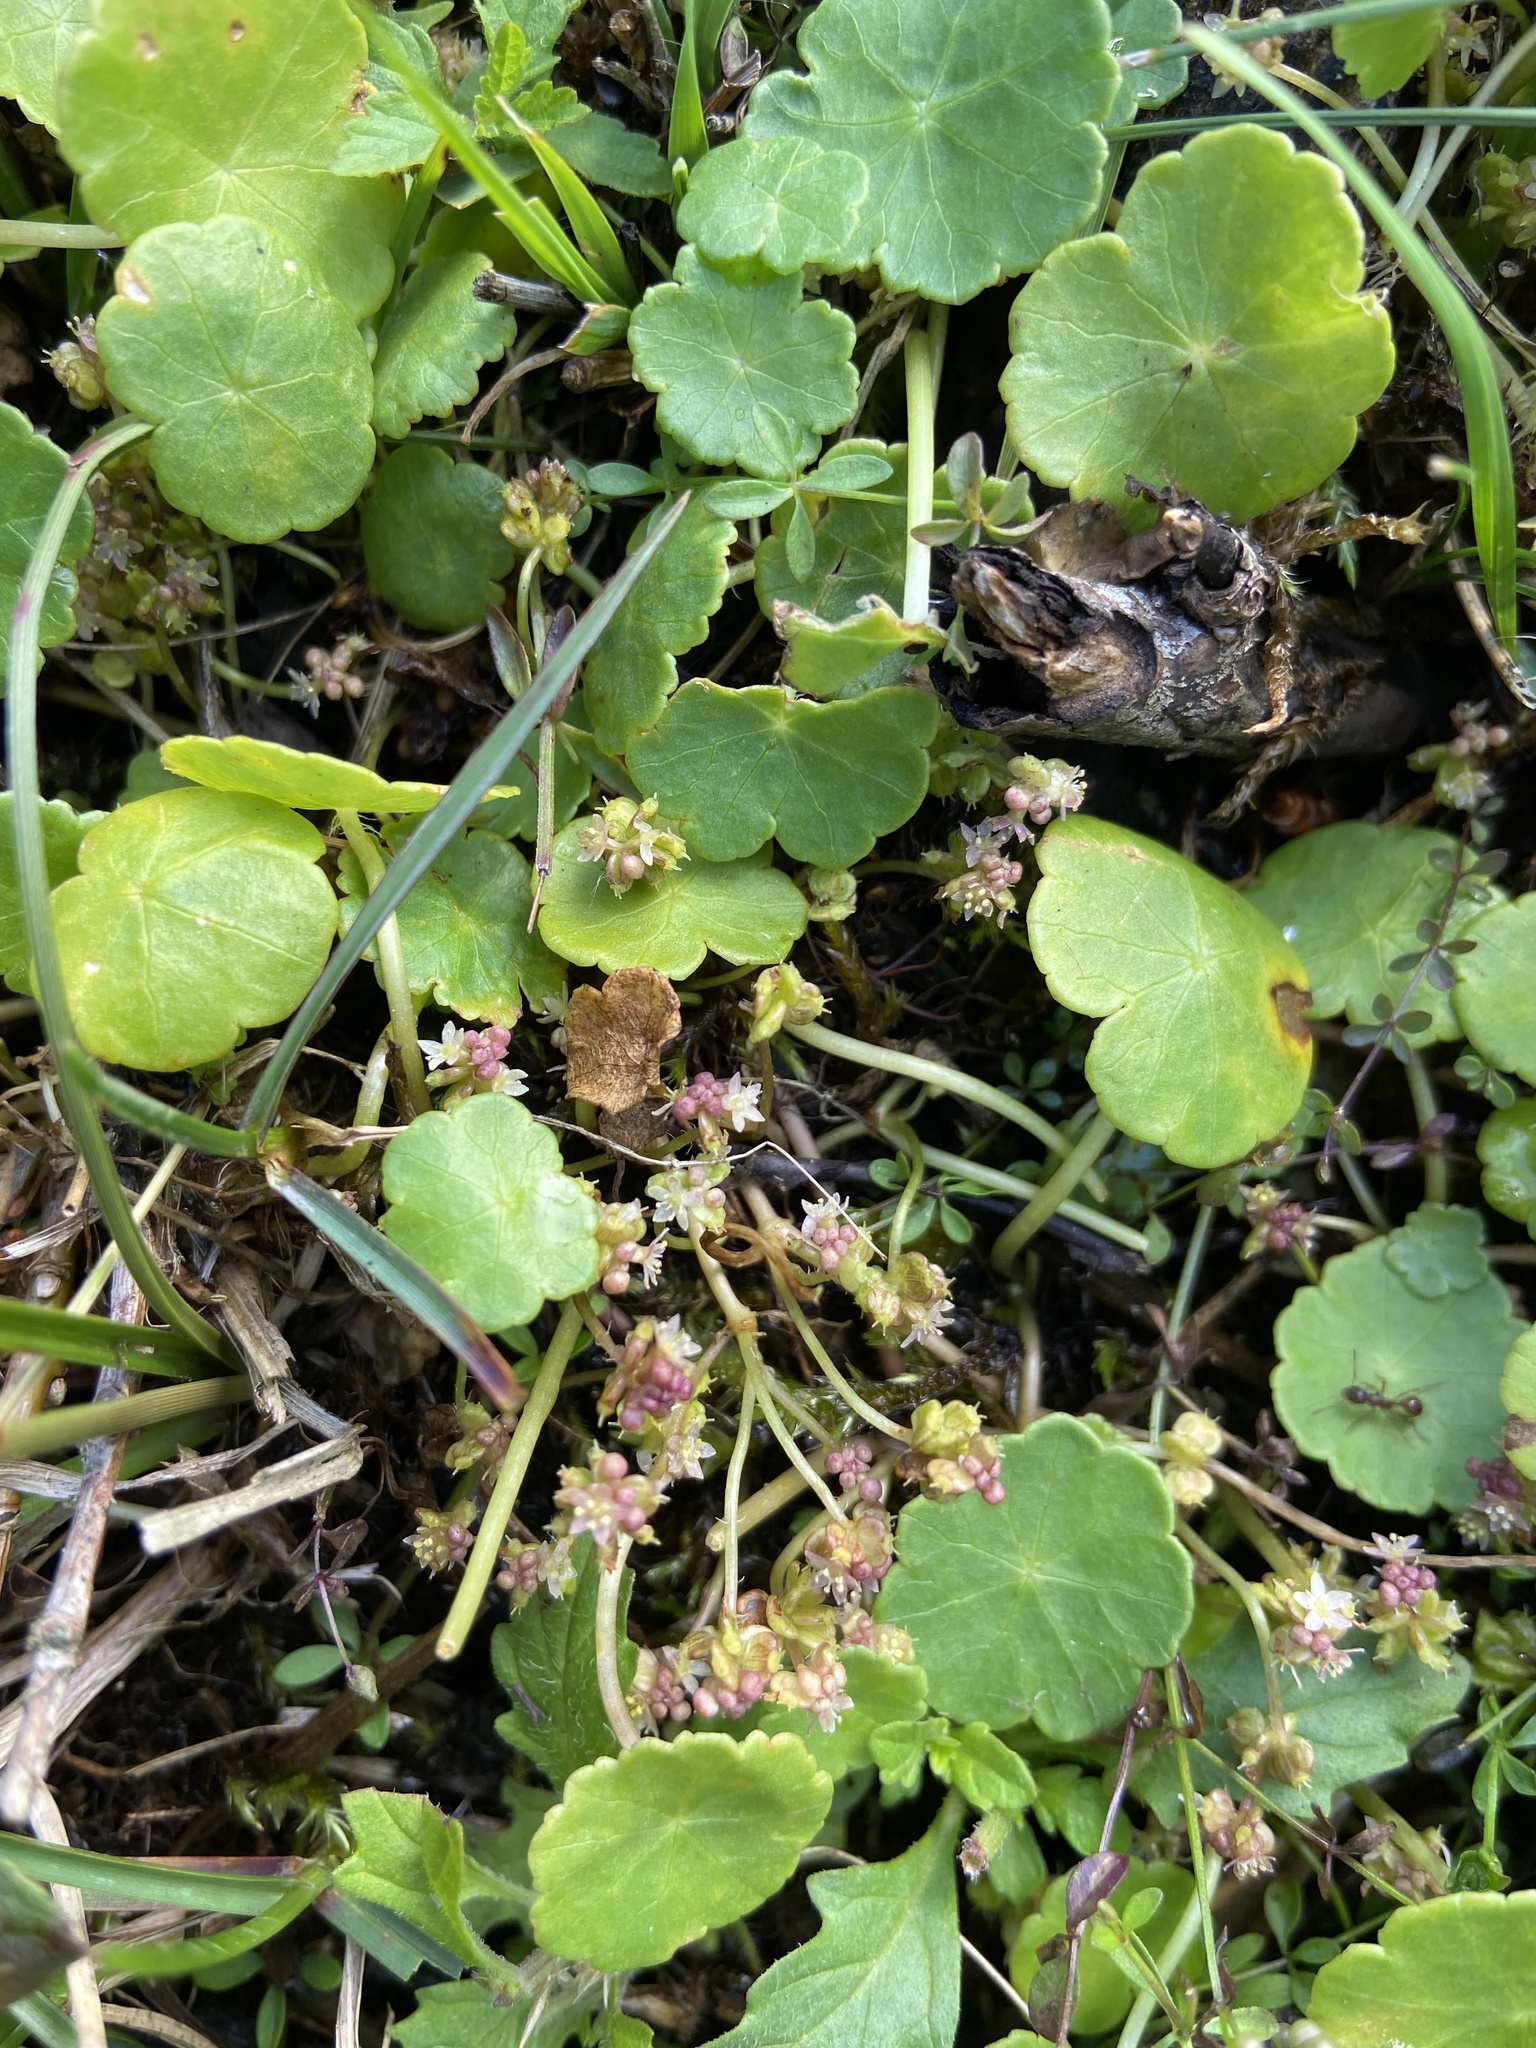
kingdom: Plantae
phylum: Tracheophyta
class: Magnoliopsida
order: Apiales
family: Araliaceae
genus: Hydrocotyle
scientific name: Hydrocotyle vulgaris
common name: Marsh pennywort
